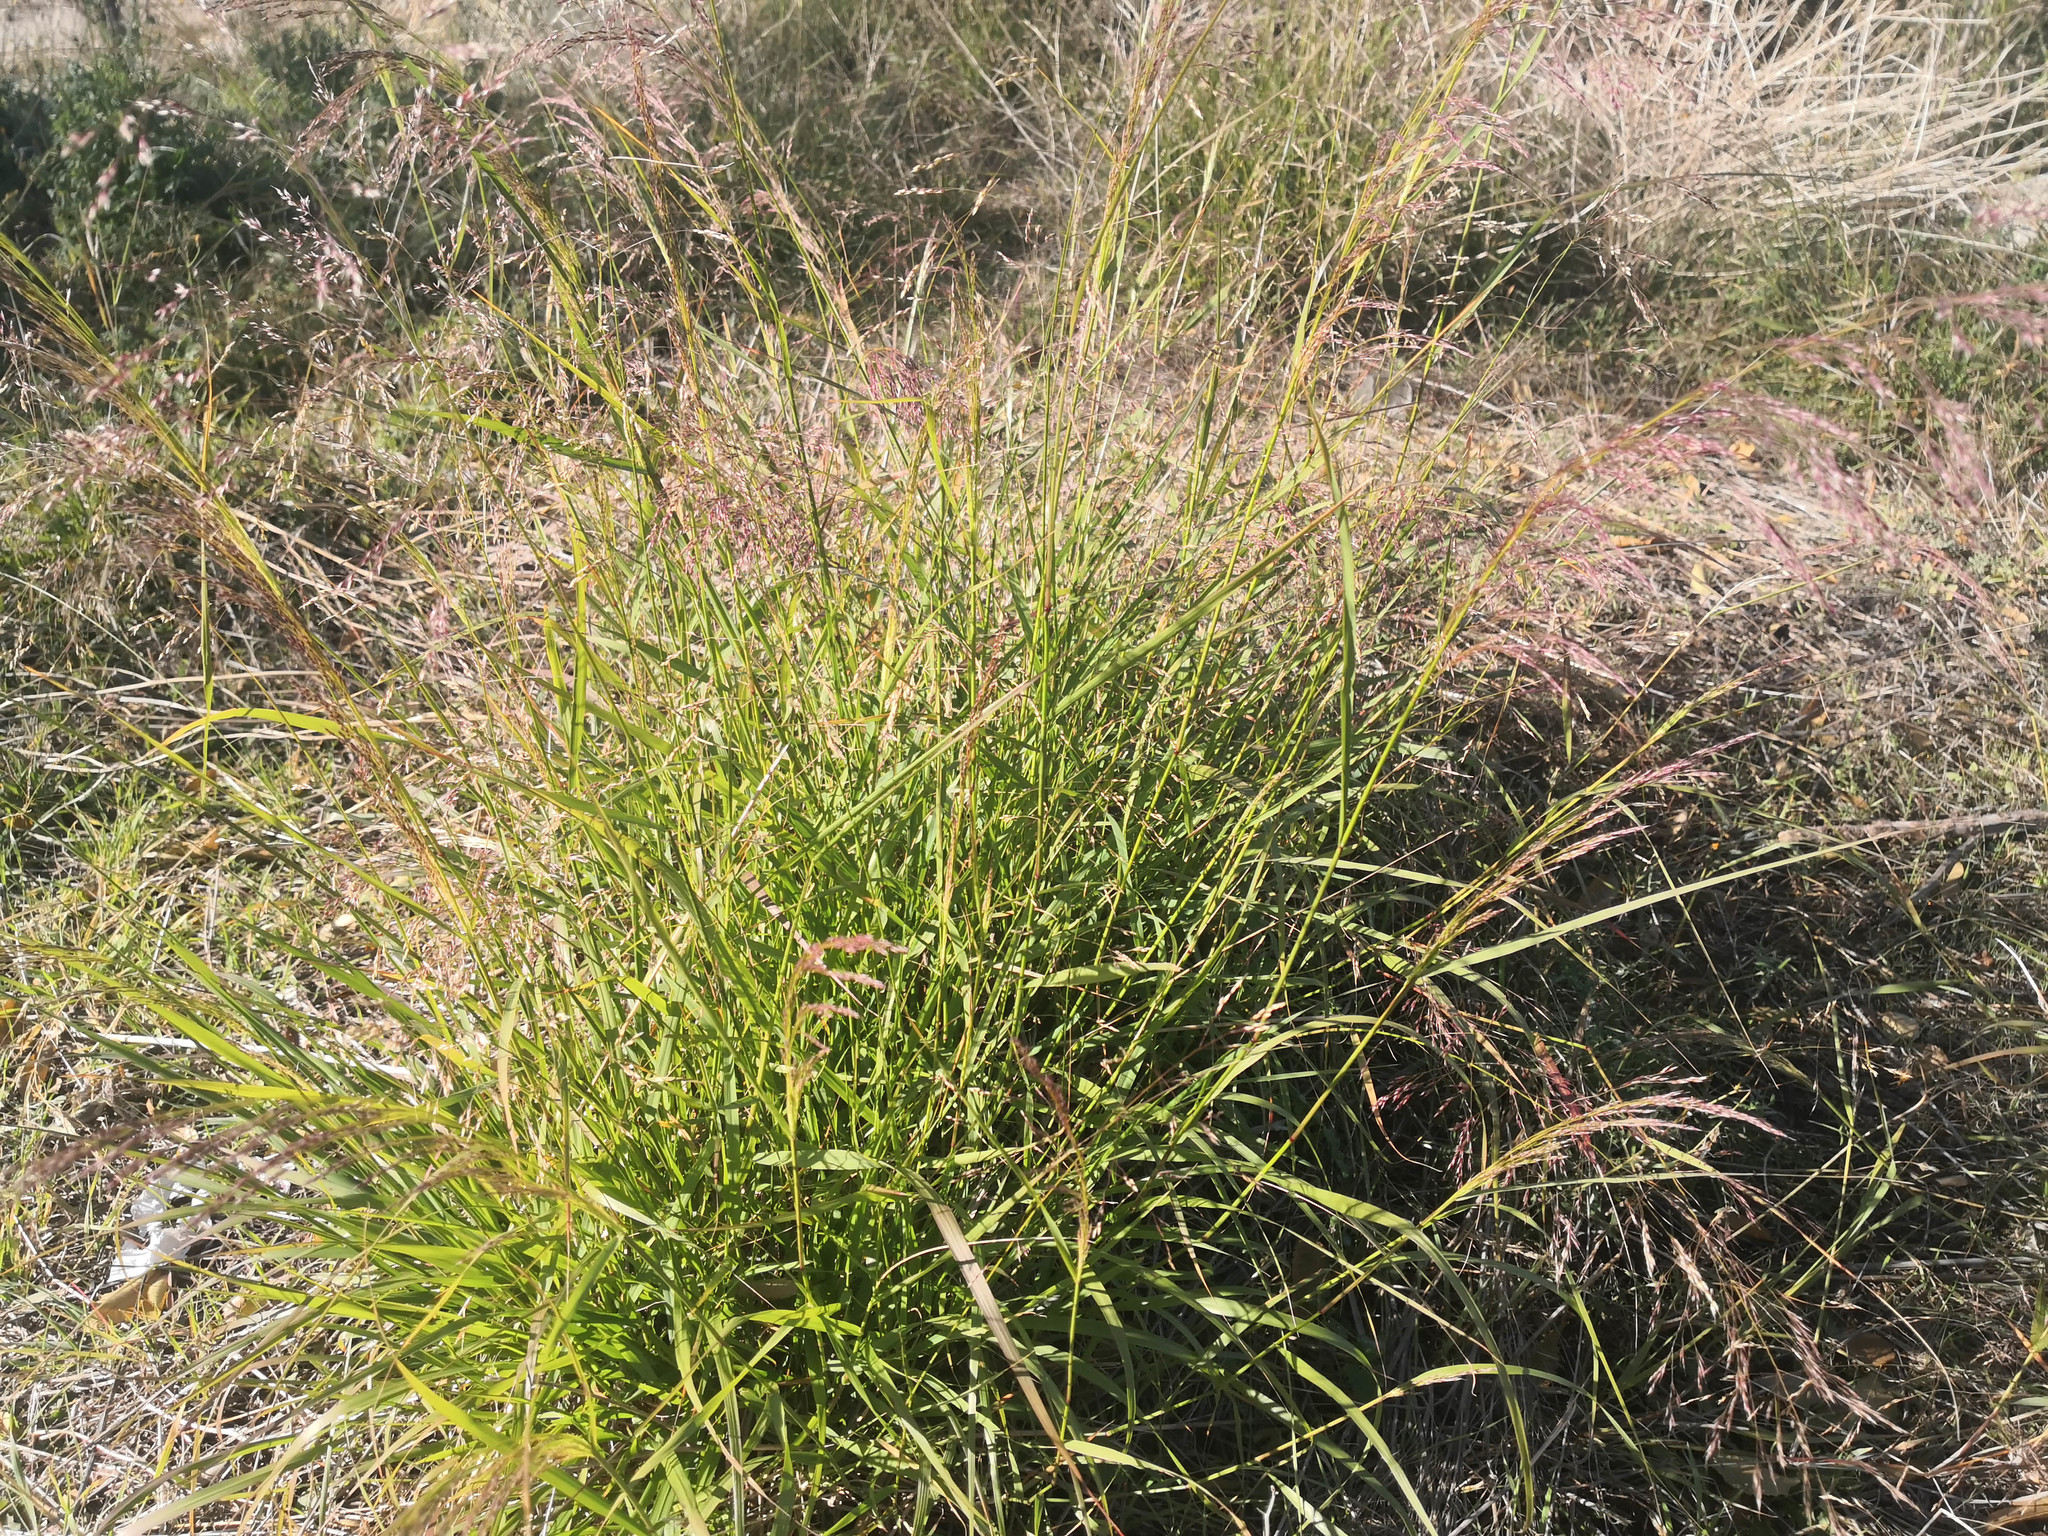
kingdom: Plantae
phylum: Tracheophyta
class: Liliopsida
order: Poales
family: Poaceae
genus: Oloptum
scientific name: Oloptum miliaceum
